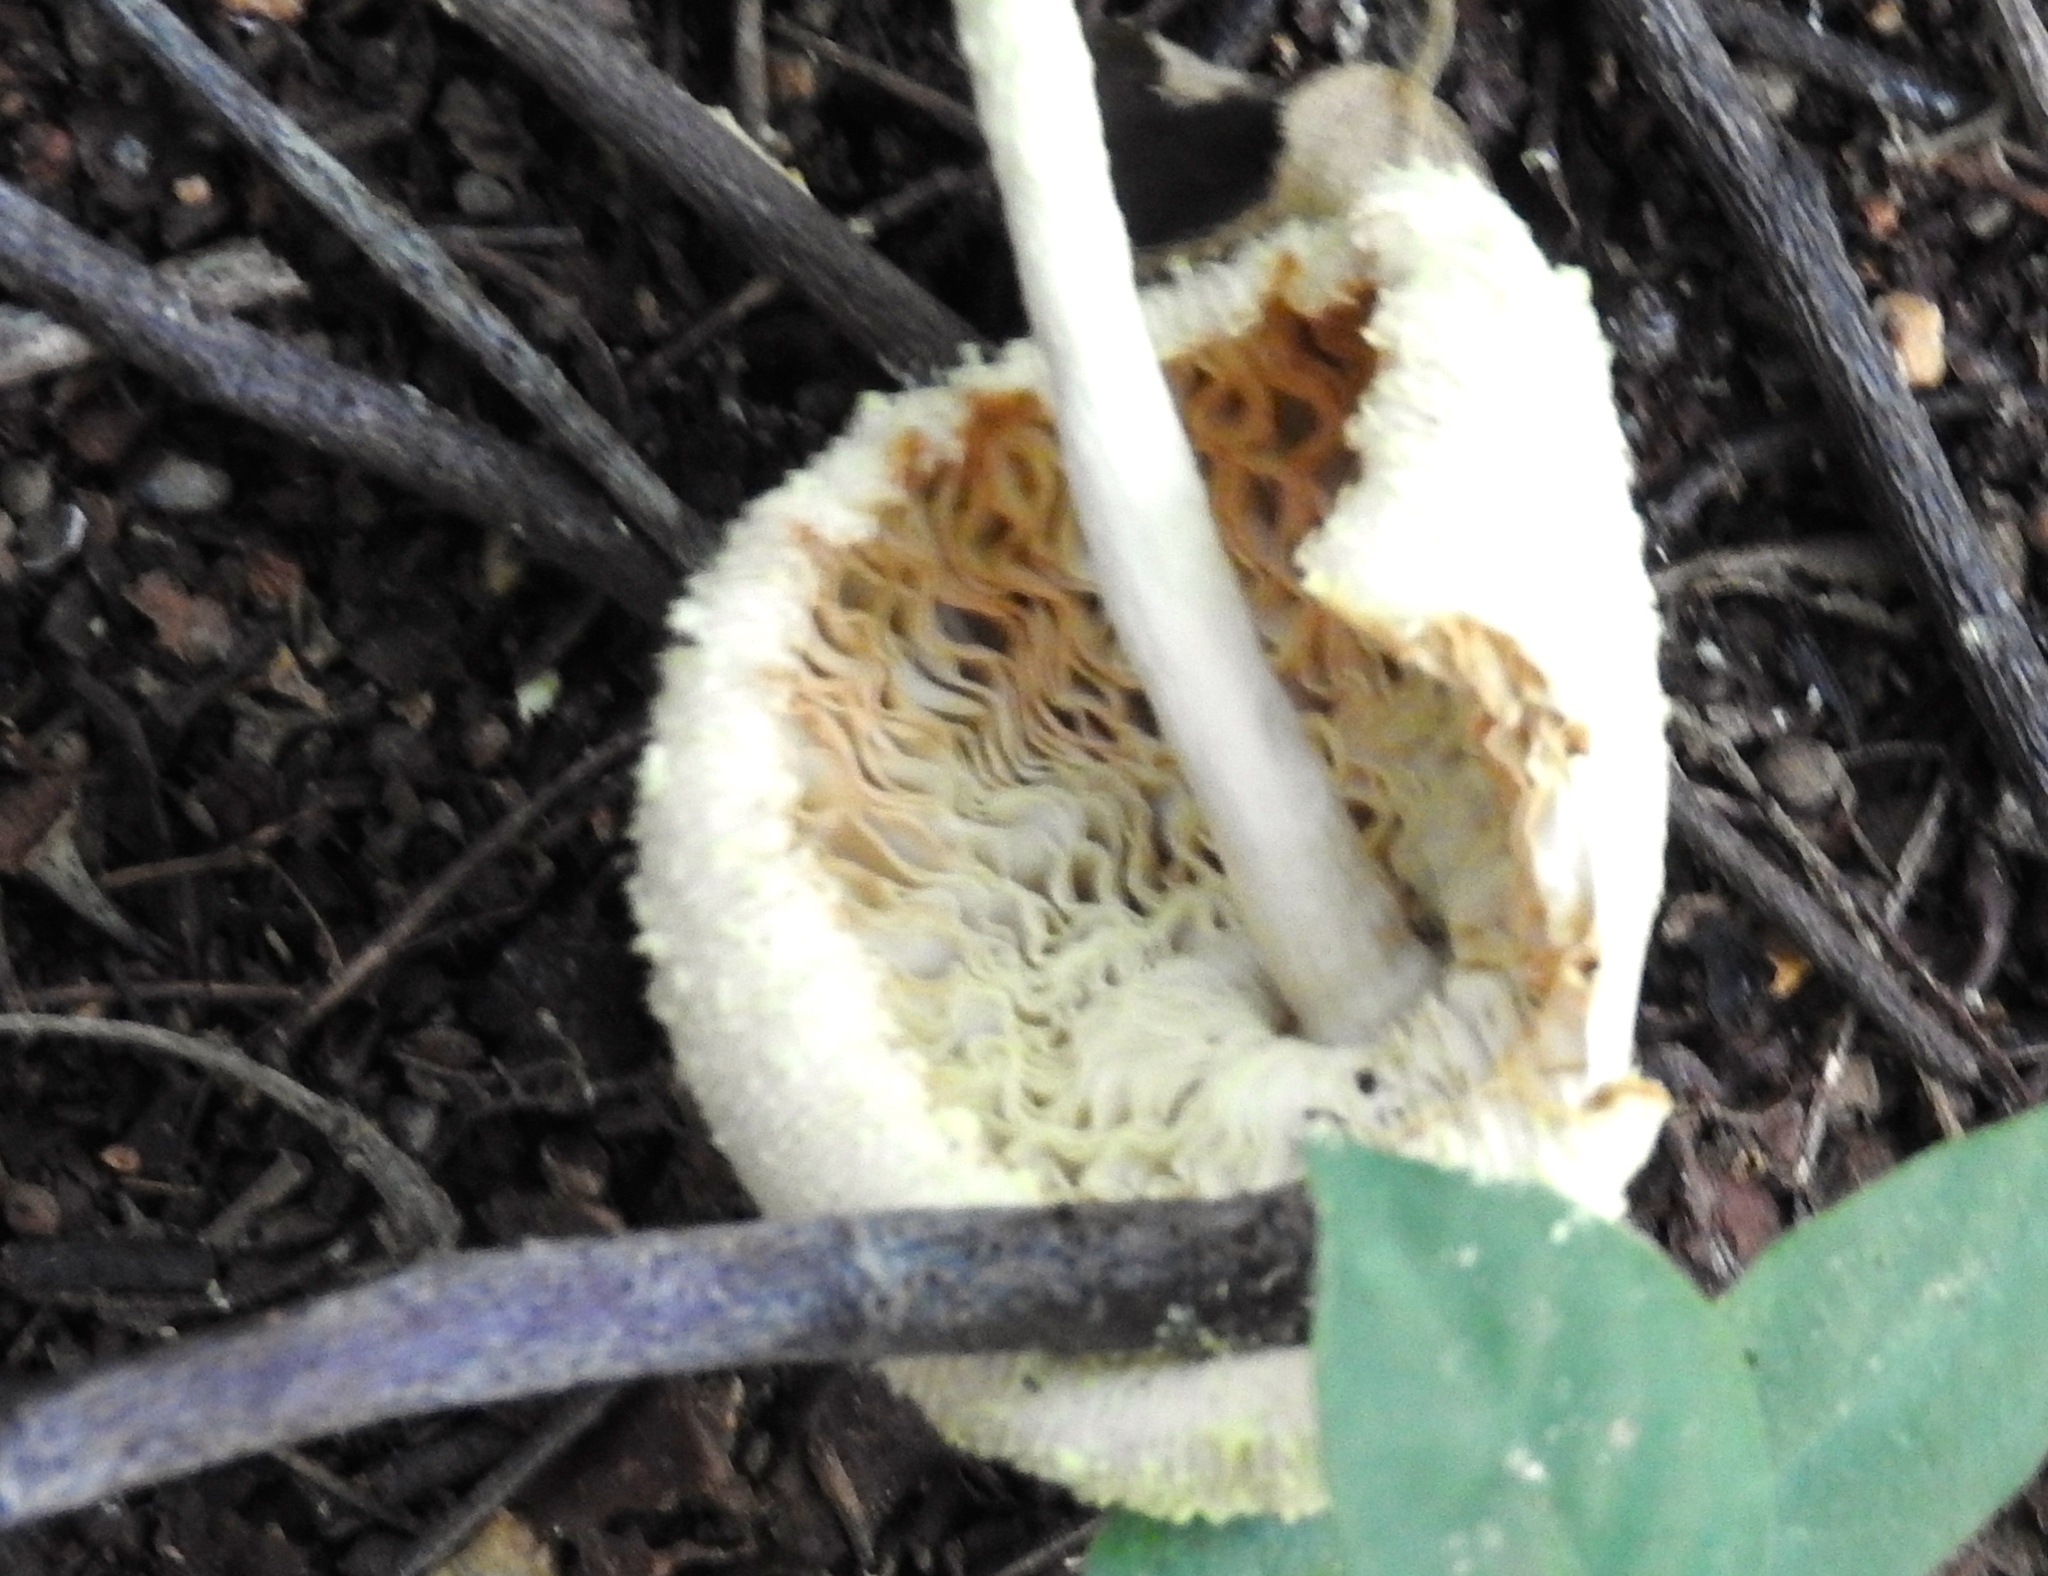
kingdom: Fungi
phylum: Basidiomycota
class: Agaricomycetes
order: Agaricales
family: Agaricaceae
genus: Leucocoprinus
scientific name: Leucocoprinus
